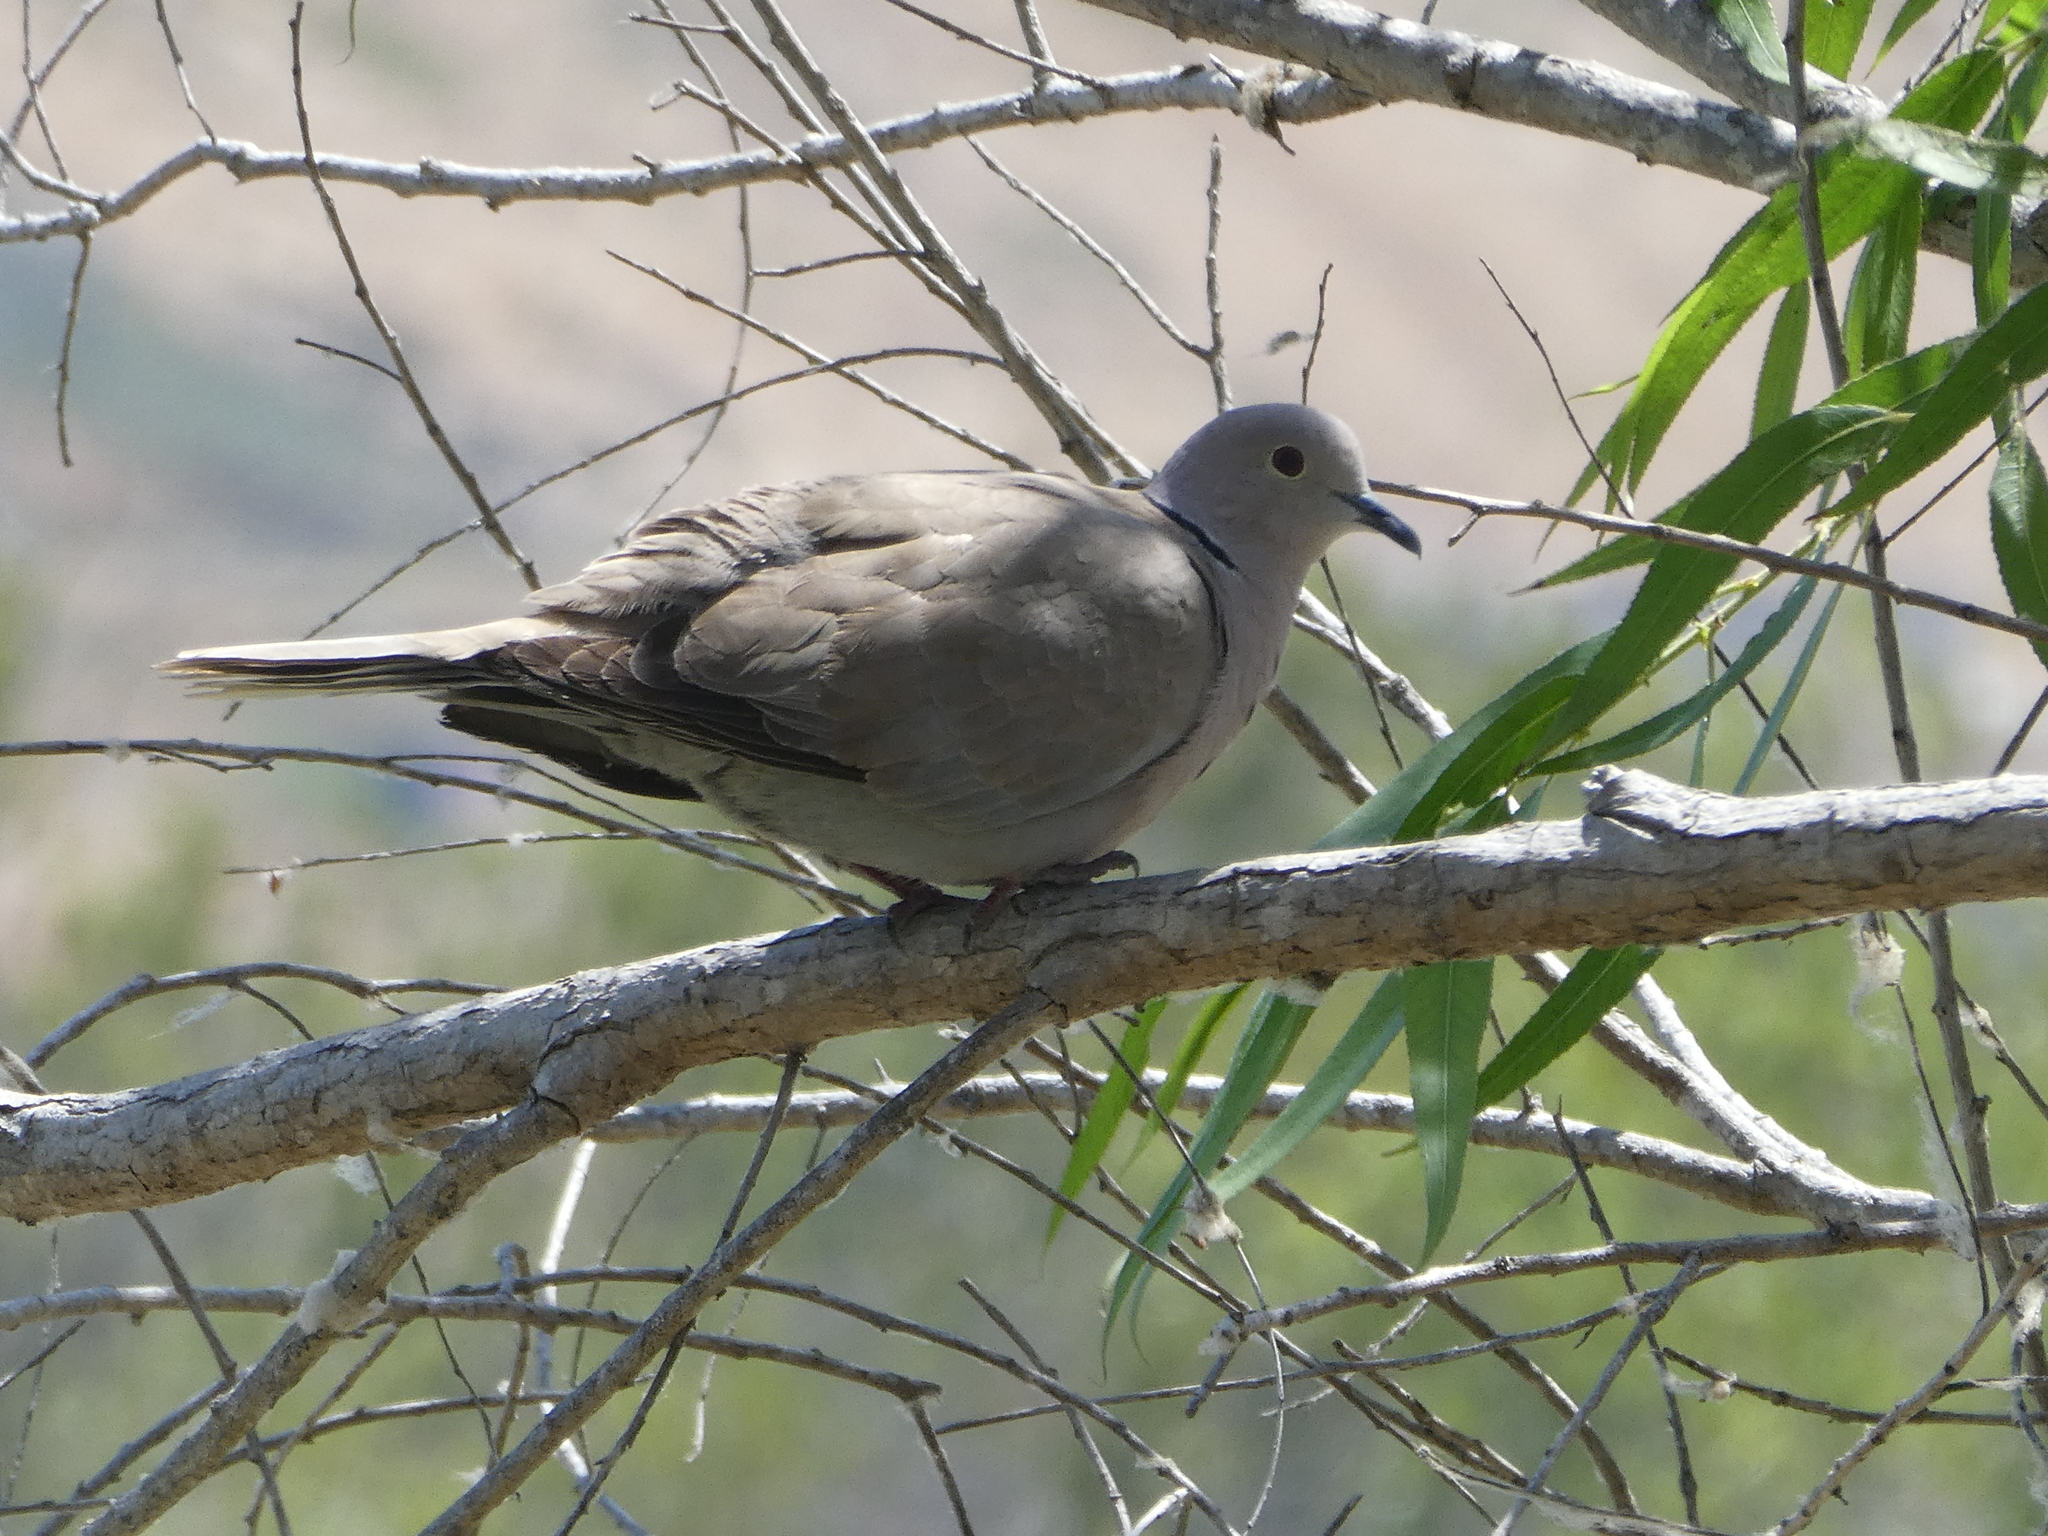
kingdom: Animalia
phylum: Chordata
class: Aves
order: Columbiformes
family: Columbidae
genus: Streptopelia
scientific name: Streptopelia decaocto
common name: Eurasian collared dove
